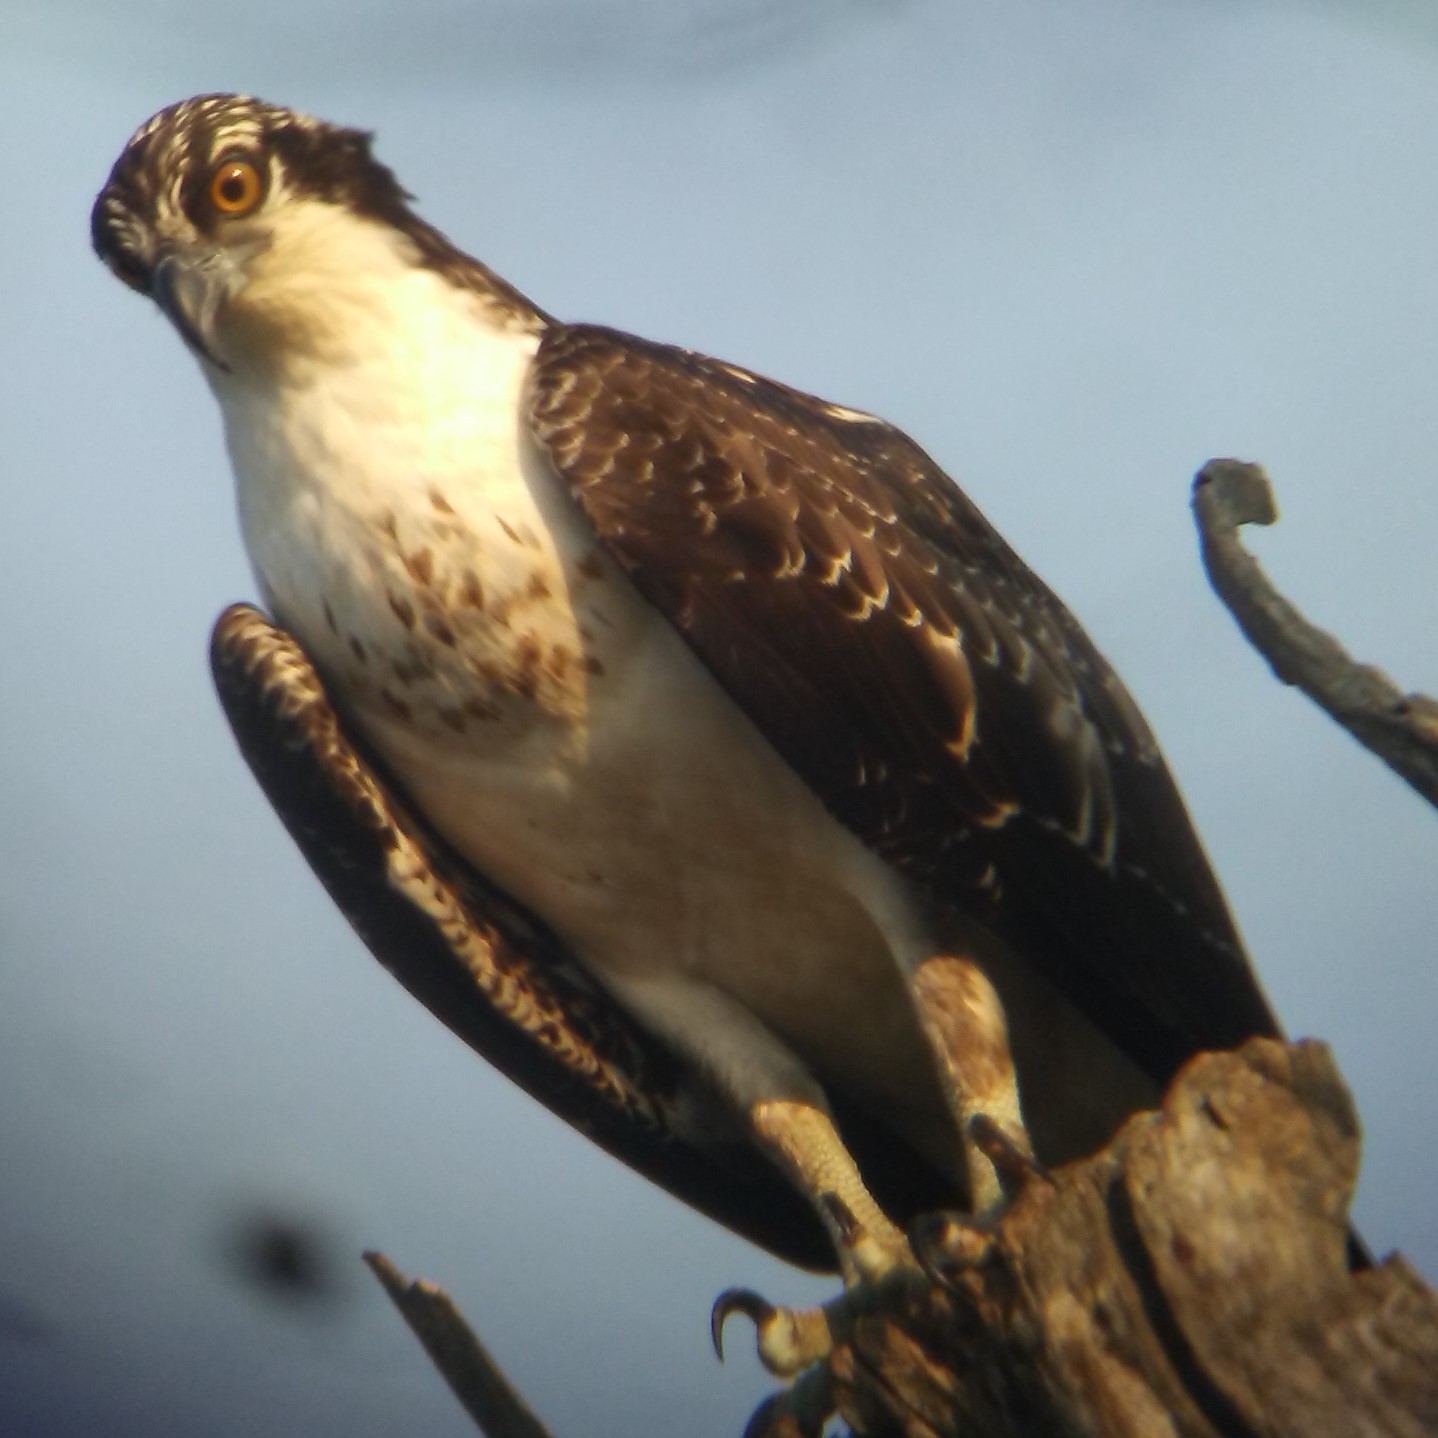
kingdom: Animalia
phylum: Chordata
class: Aves
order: Accipitriformes
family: Pandionidae
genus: Pandion
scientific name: Pandion haliaetus
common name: Osprey
